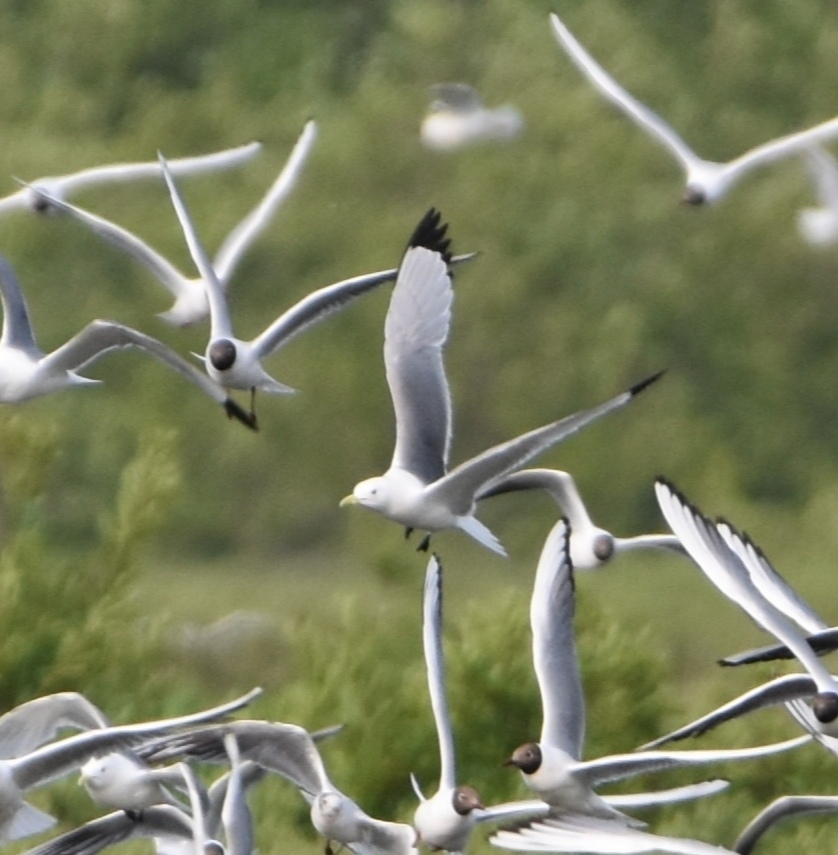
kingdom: Animalia
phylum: Chordata
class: Aves
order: Charadriiformes
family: Laridae
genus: Rissa
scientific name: Rissa tridactyla
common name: Black-legged kittiwake
